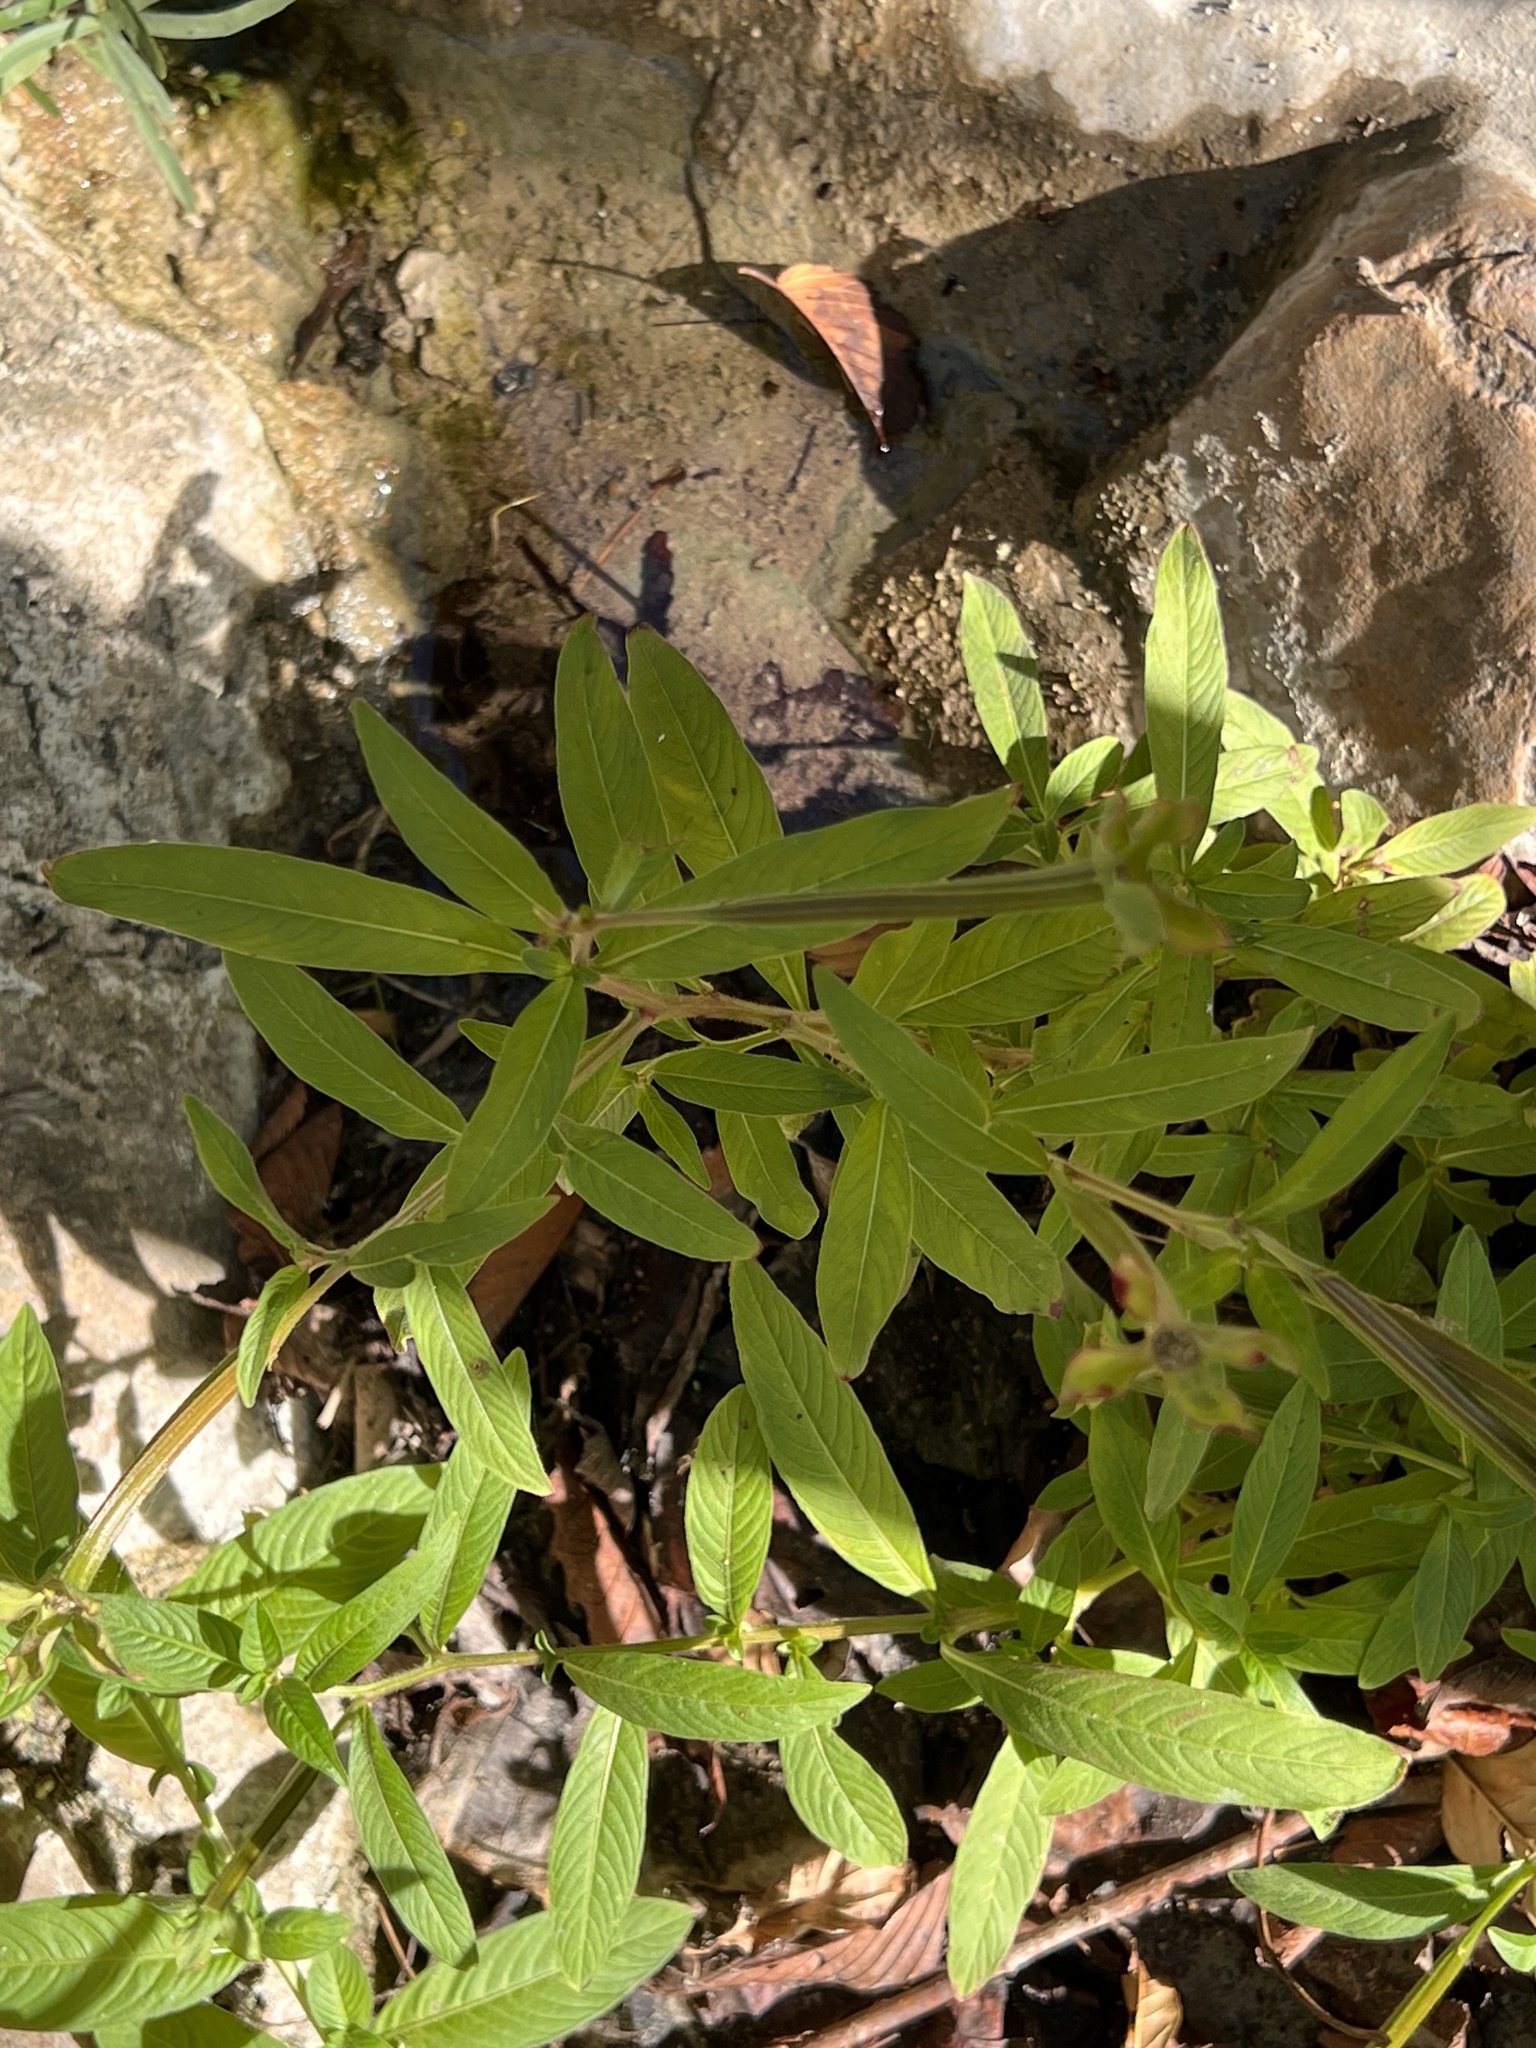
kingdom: Plantae
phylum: Tracheophyta
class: Magnoliopsida
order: Myrtales
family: Onagraceae
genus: Ludwigia
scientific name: Ludwigia octovalvis
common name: Water-primrose
